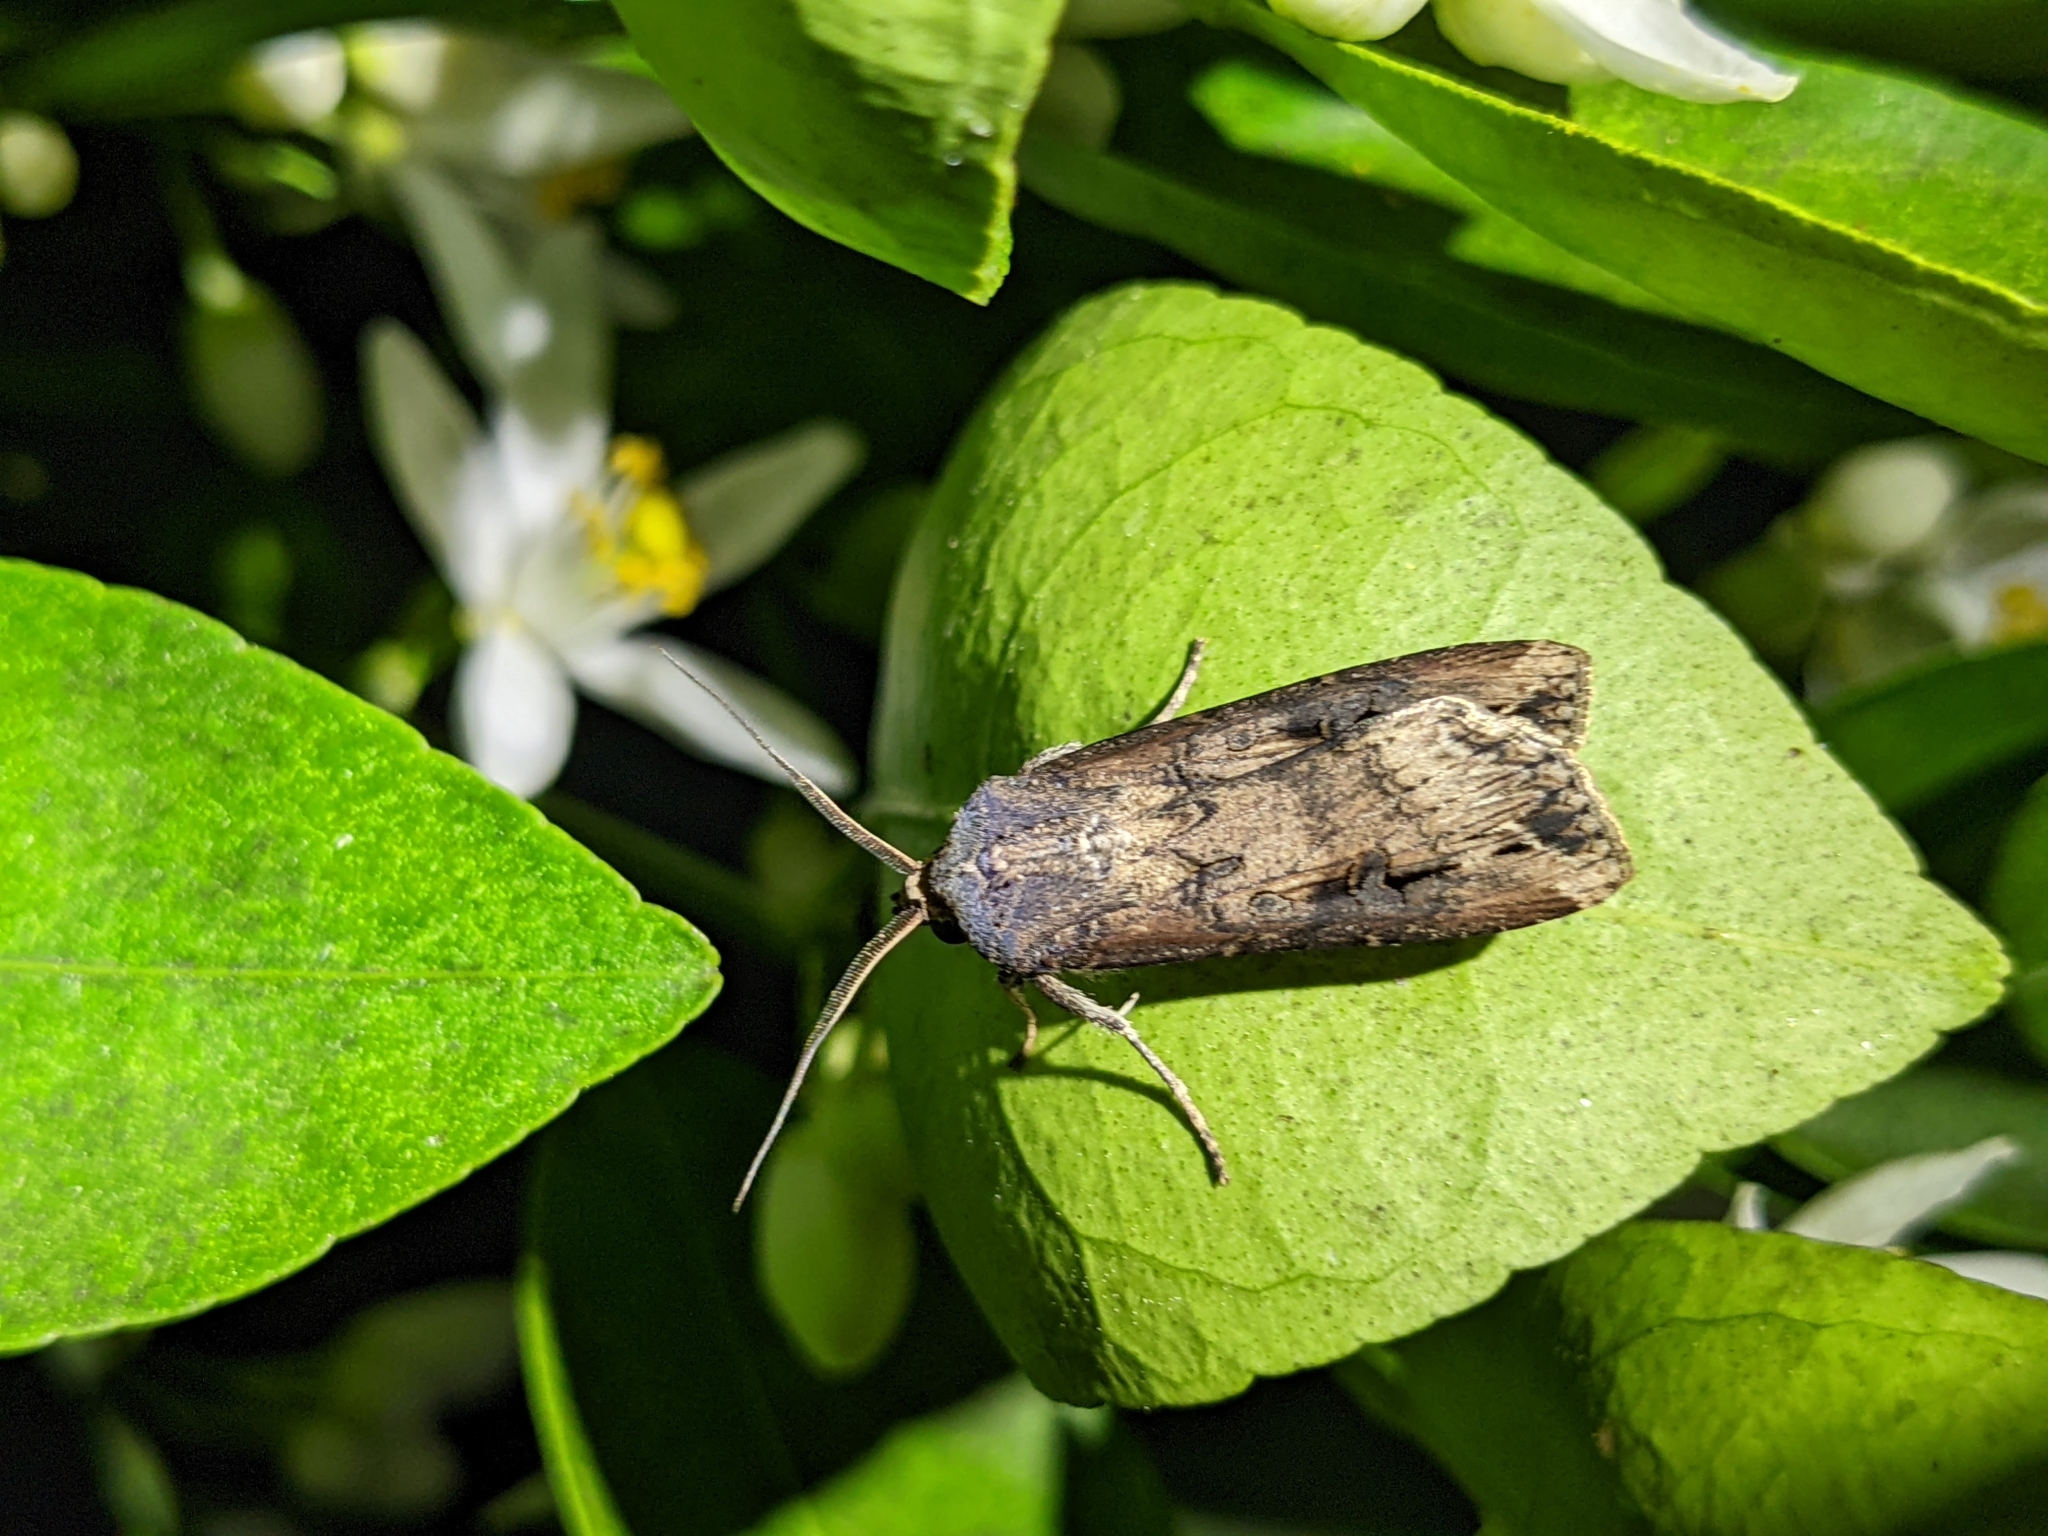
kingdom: Animalia
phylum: Arthropoda
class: Insecta
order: Lepidoptera
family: Noctuidae
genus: Agrotis
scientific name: Agrotis ipsilon
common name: Dark sword-grass
